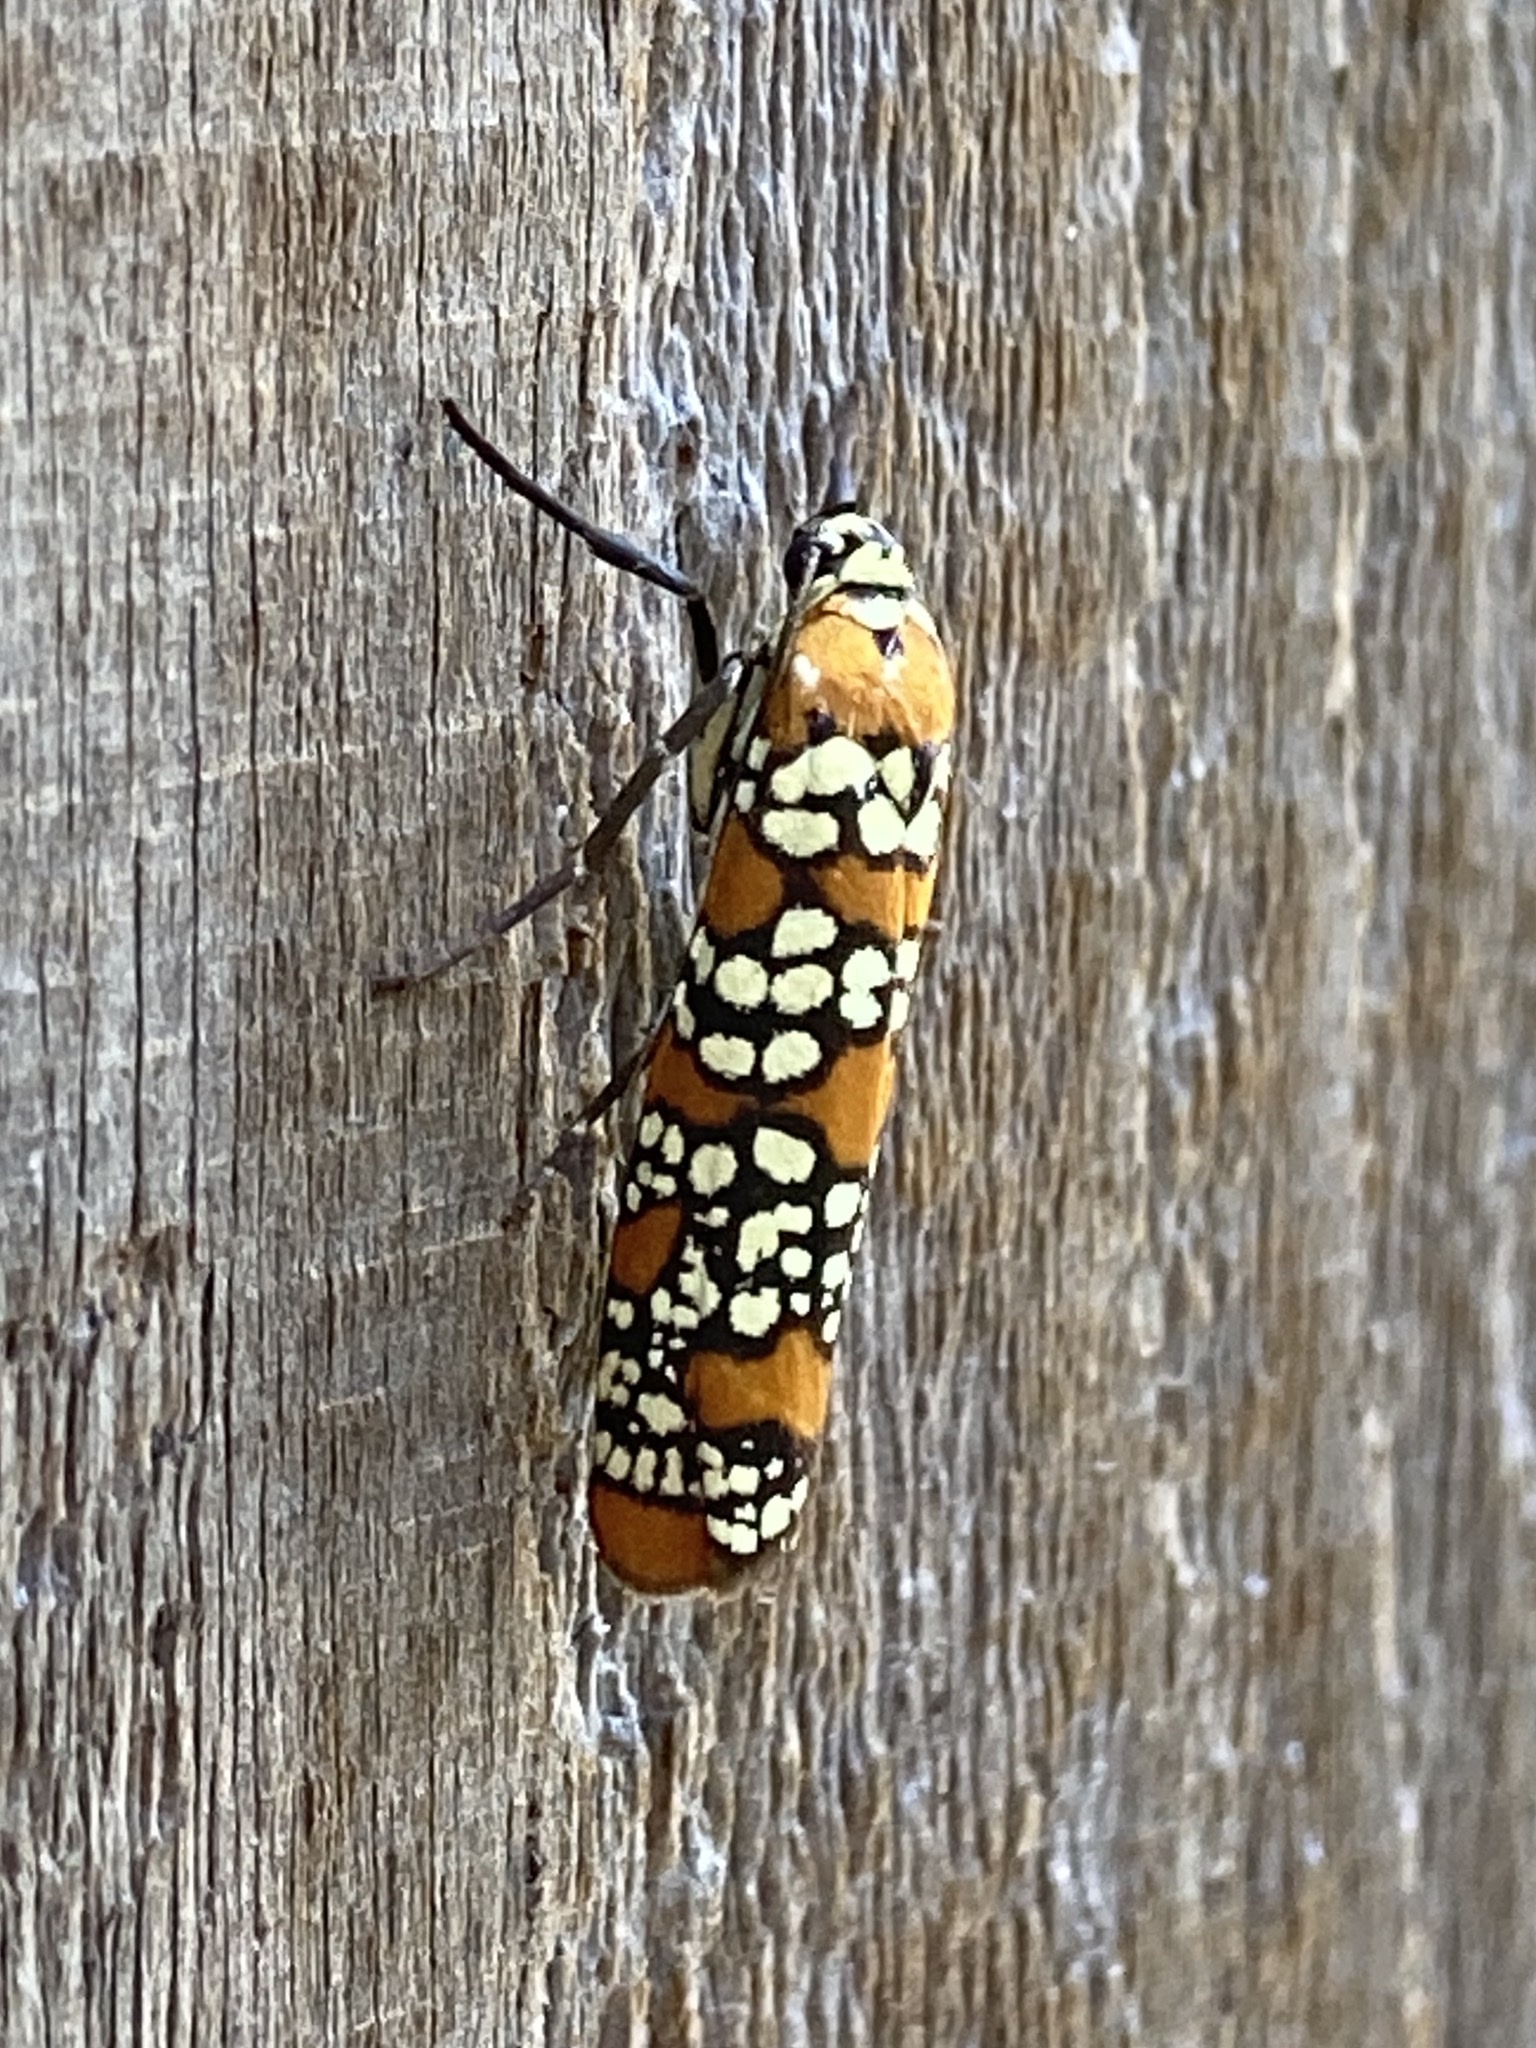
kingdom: Animalia
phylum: Arthropoda
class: Insecta
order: Lepidoptera
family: Attevidae
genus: Atteva
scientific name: Atteva punctella
